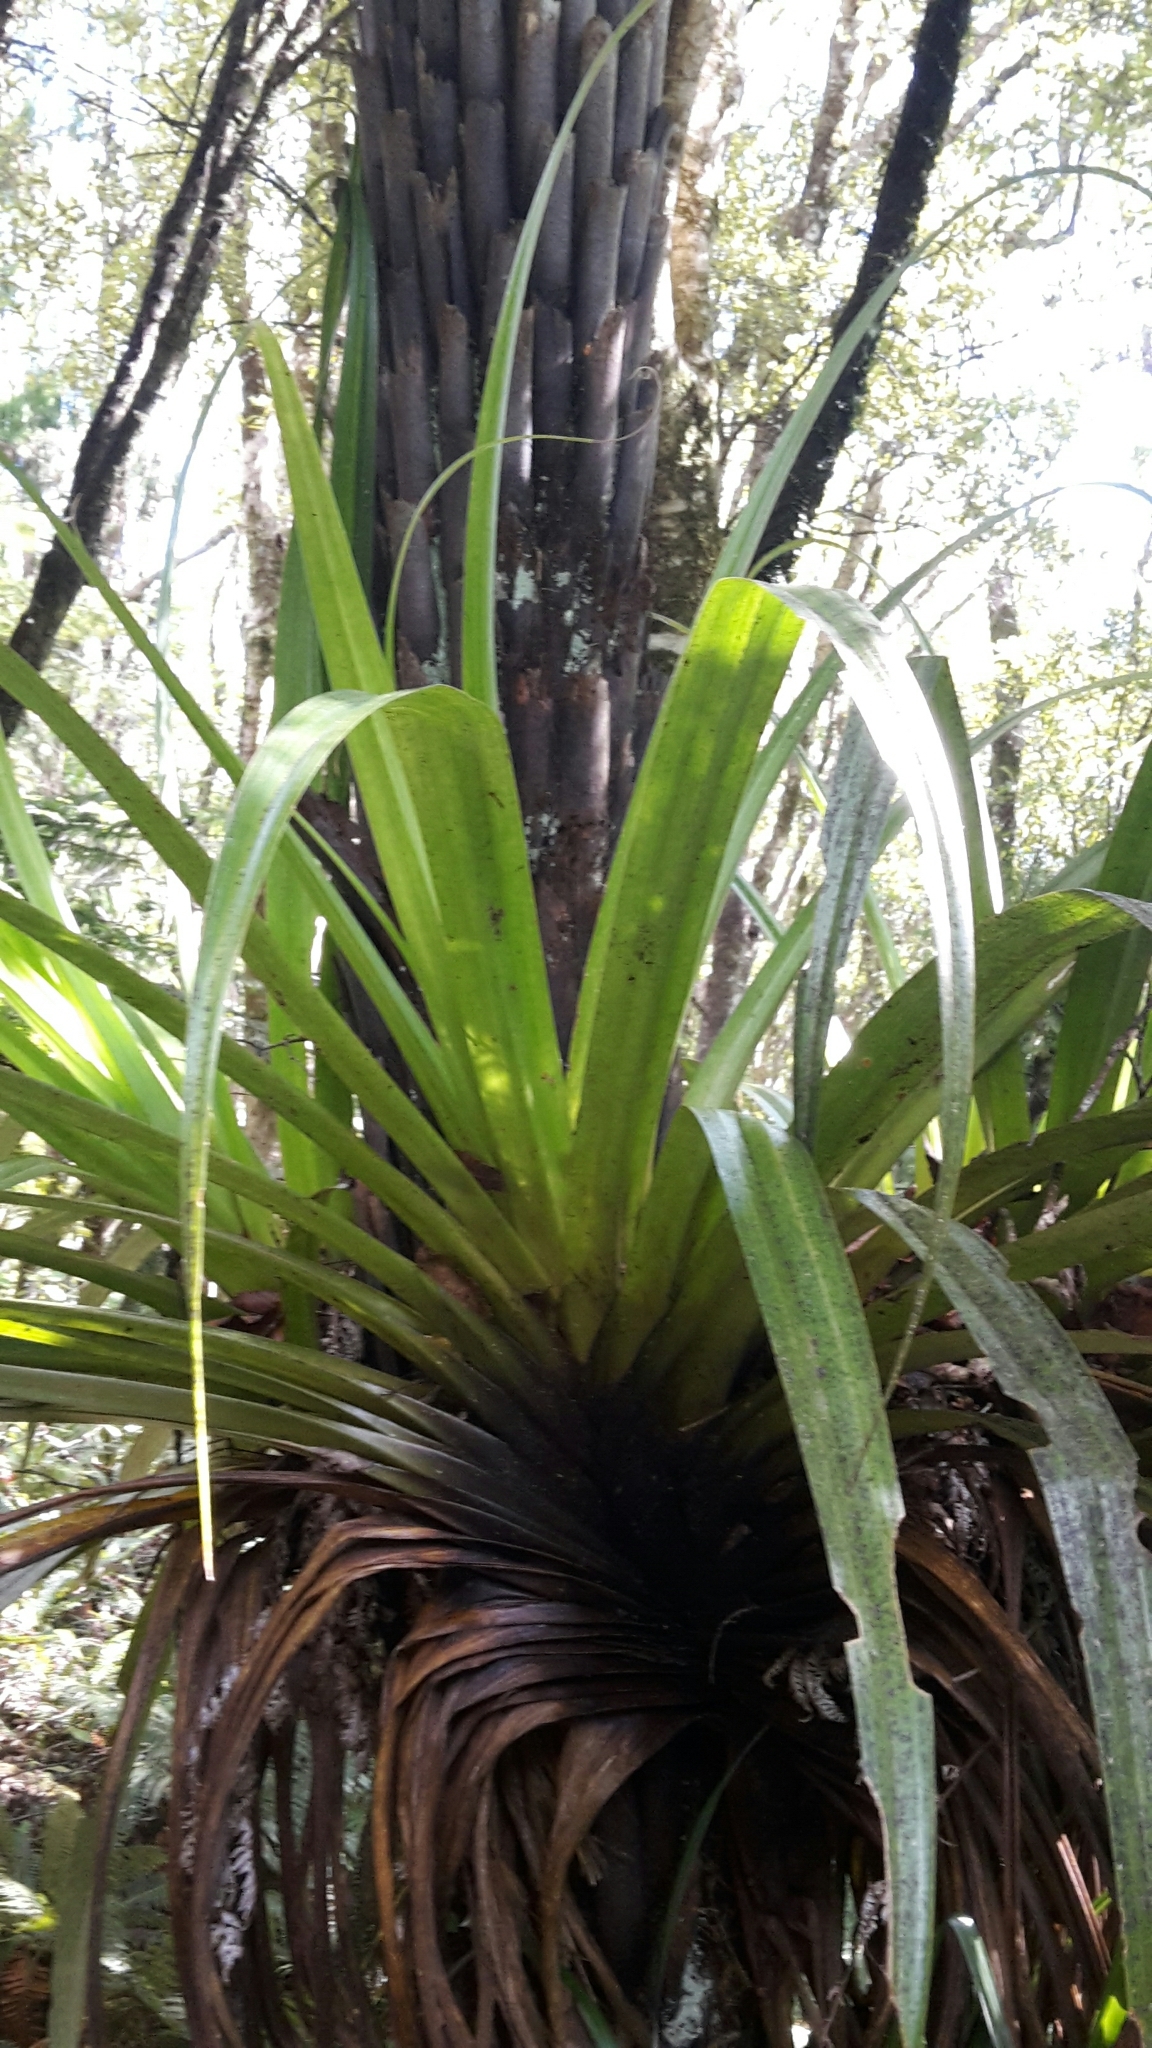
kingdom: Plantae
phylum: Tracheophyta
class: Liliopsida
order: Asparagales
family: Asteliaceae
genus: Astelia
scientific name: Astelia hastata
